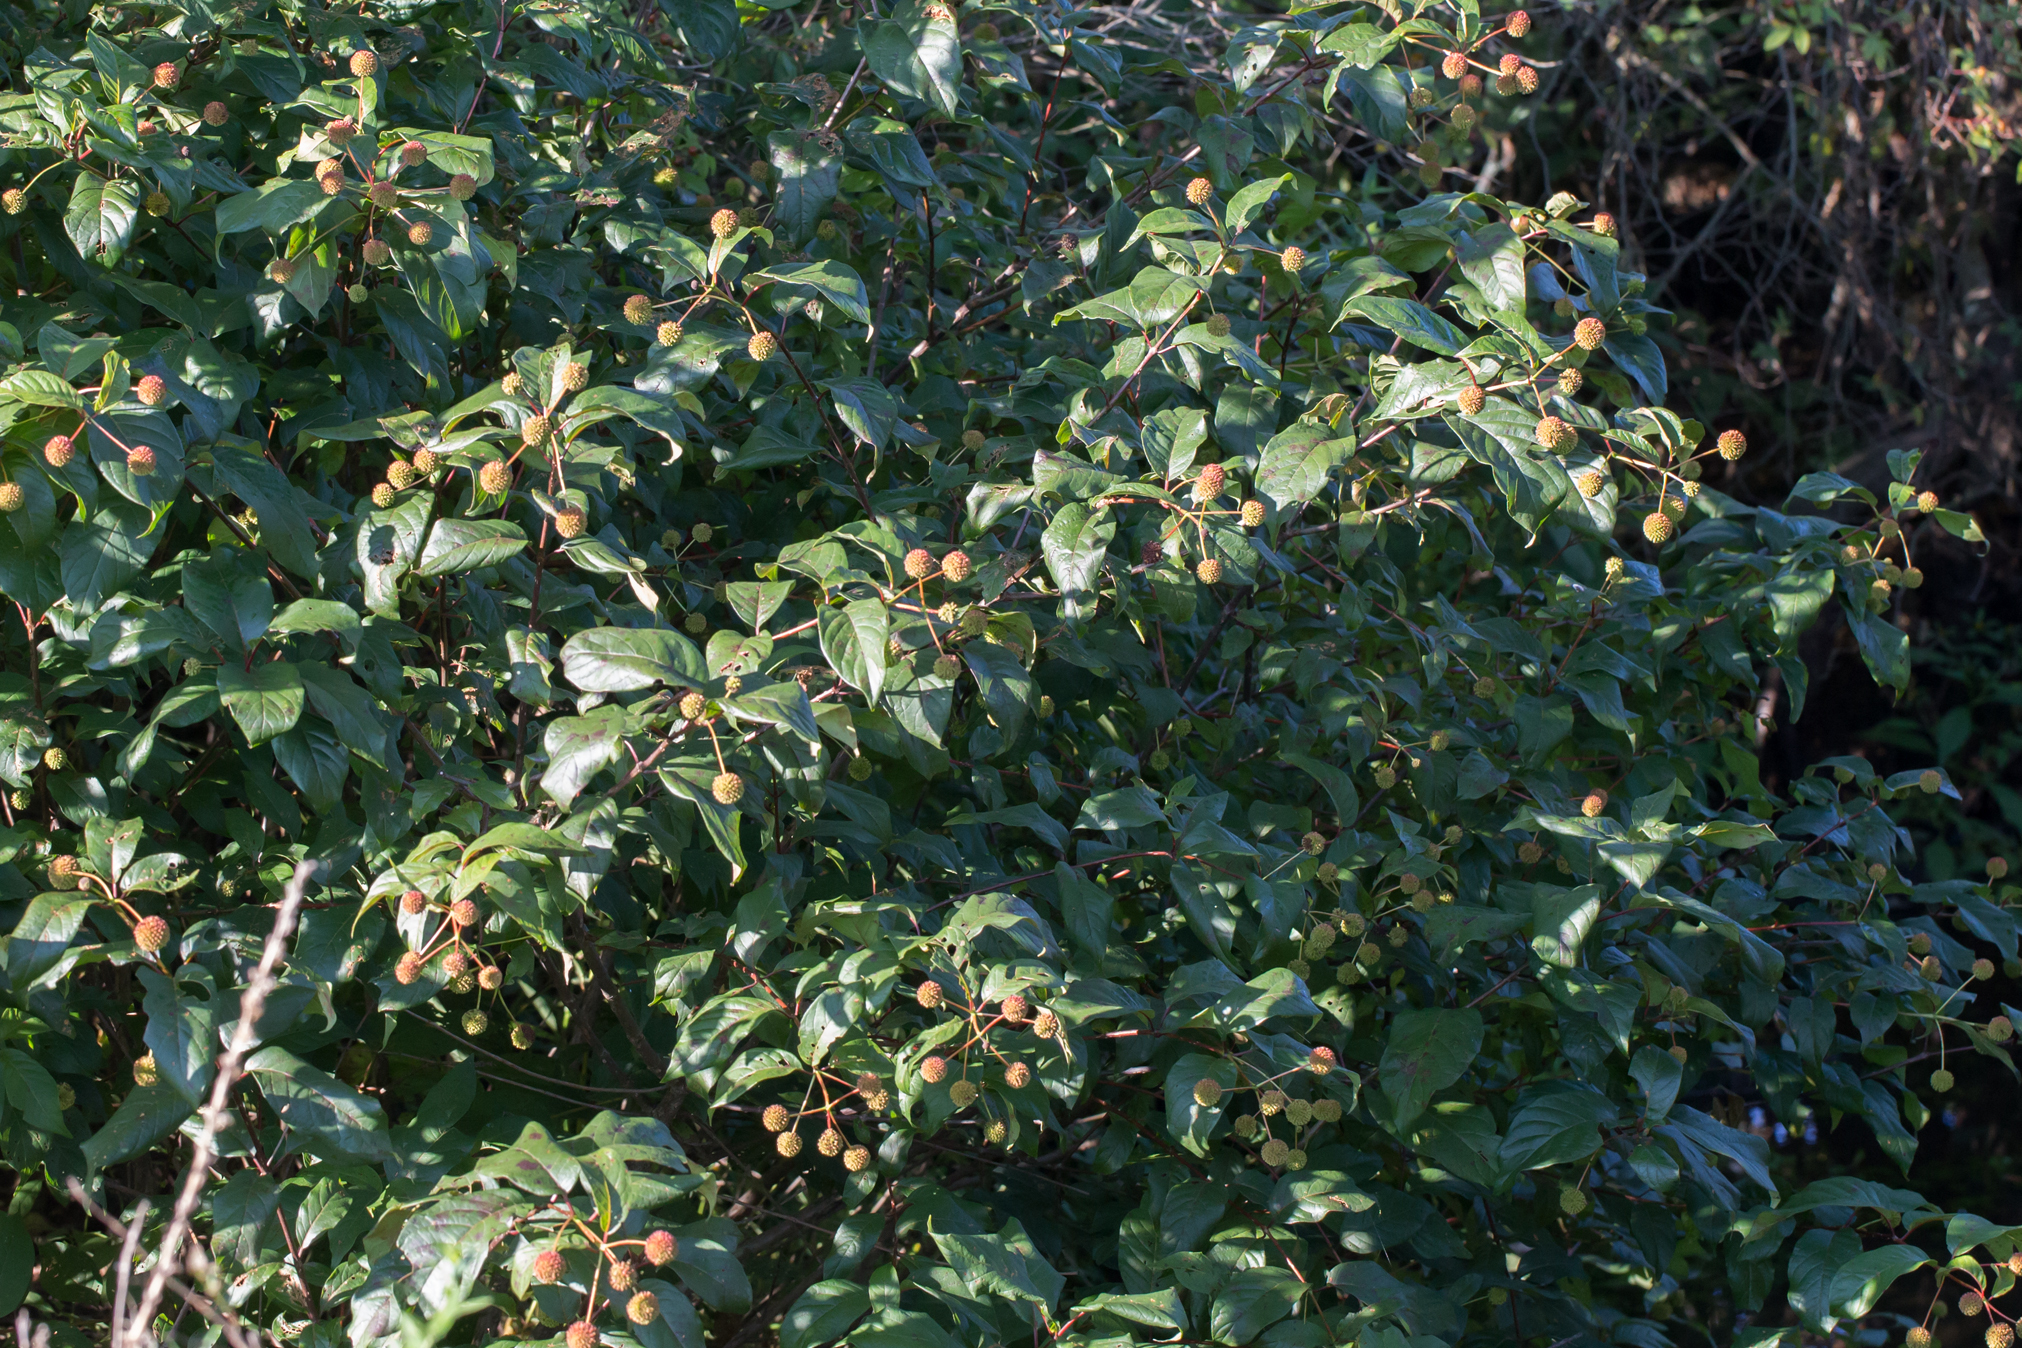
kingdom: Plantae
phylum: Tracheophyta
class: Magnoliopsida
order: Gentianales
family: Rubiaceae
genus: Cephalanthus
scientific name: Cephalanthus occidentalis
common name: Button-willow
